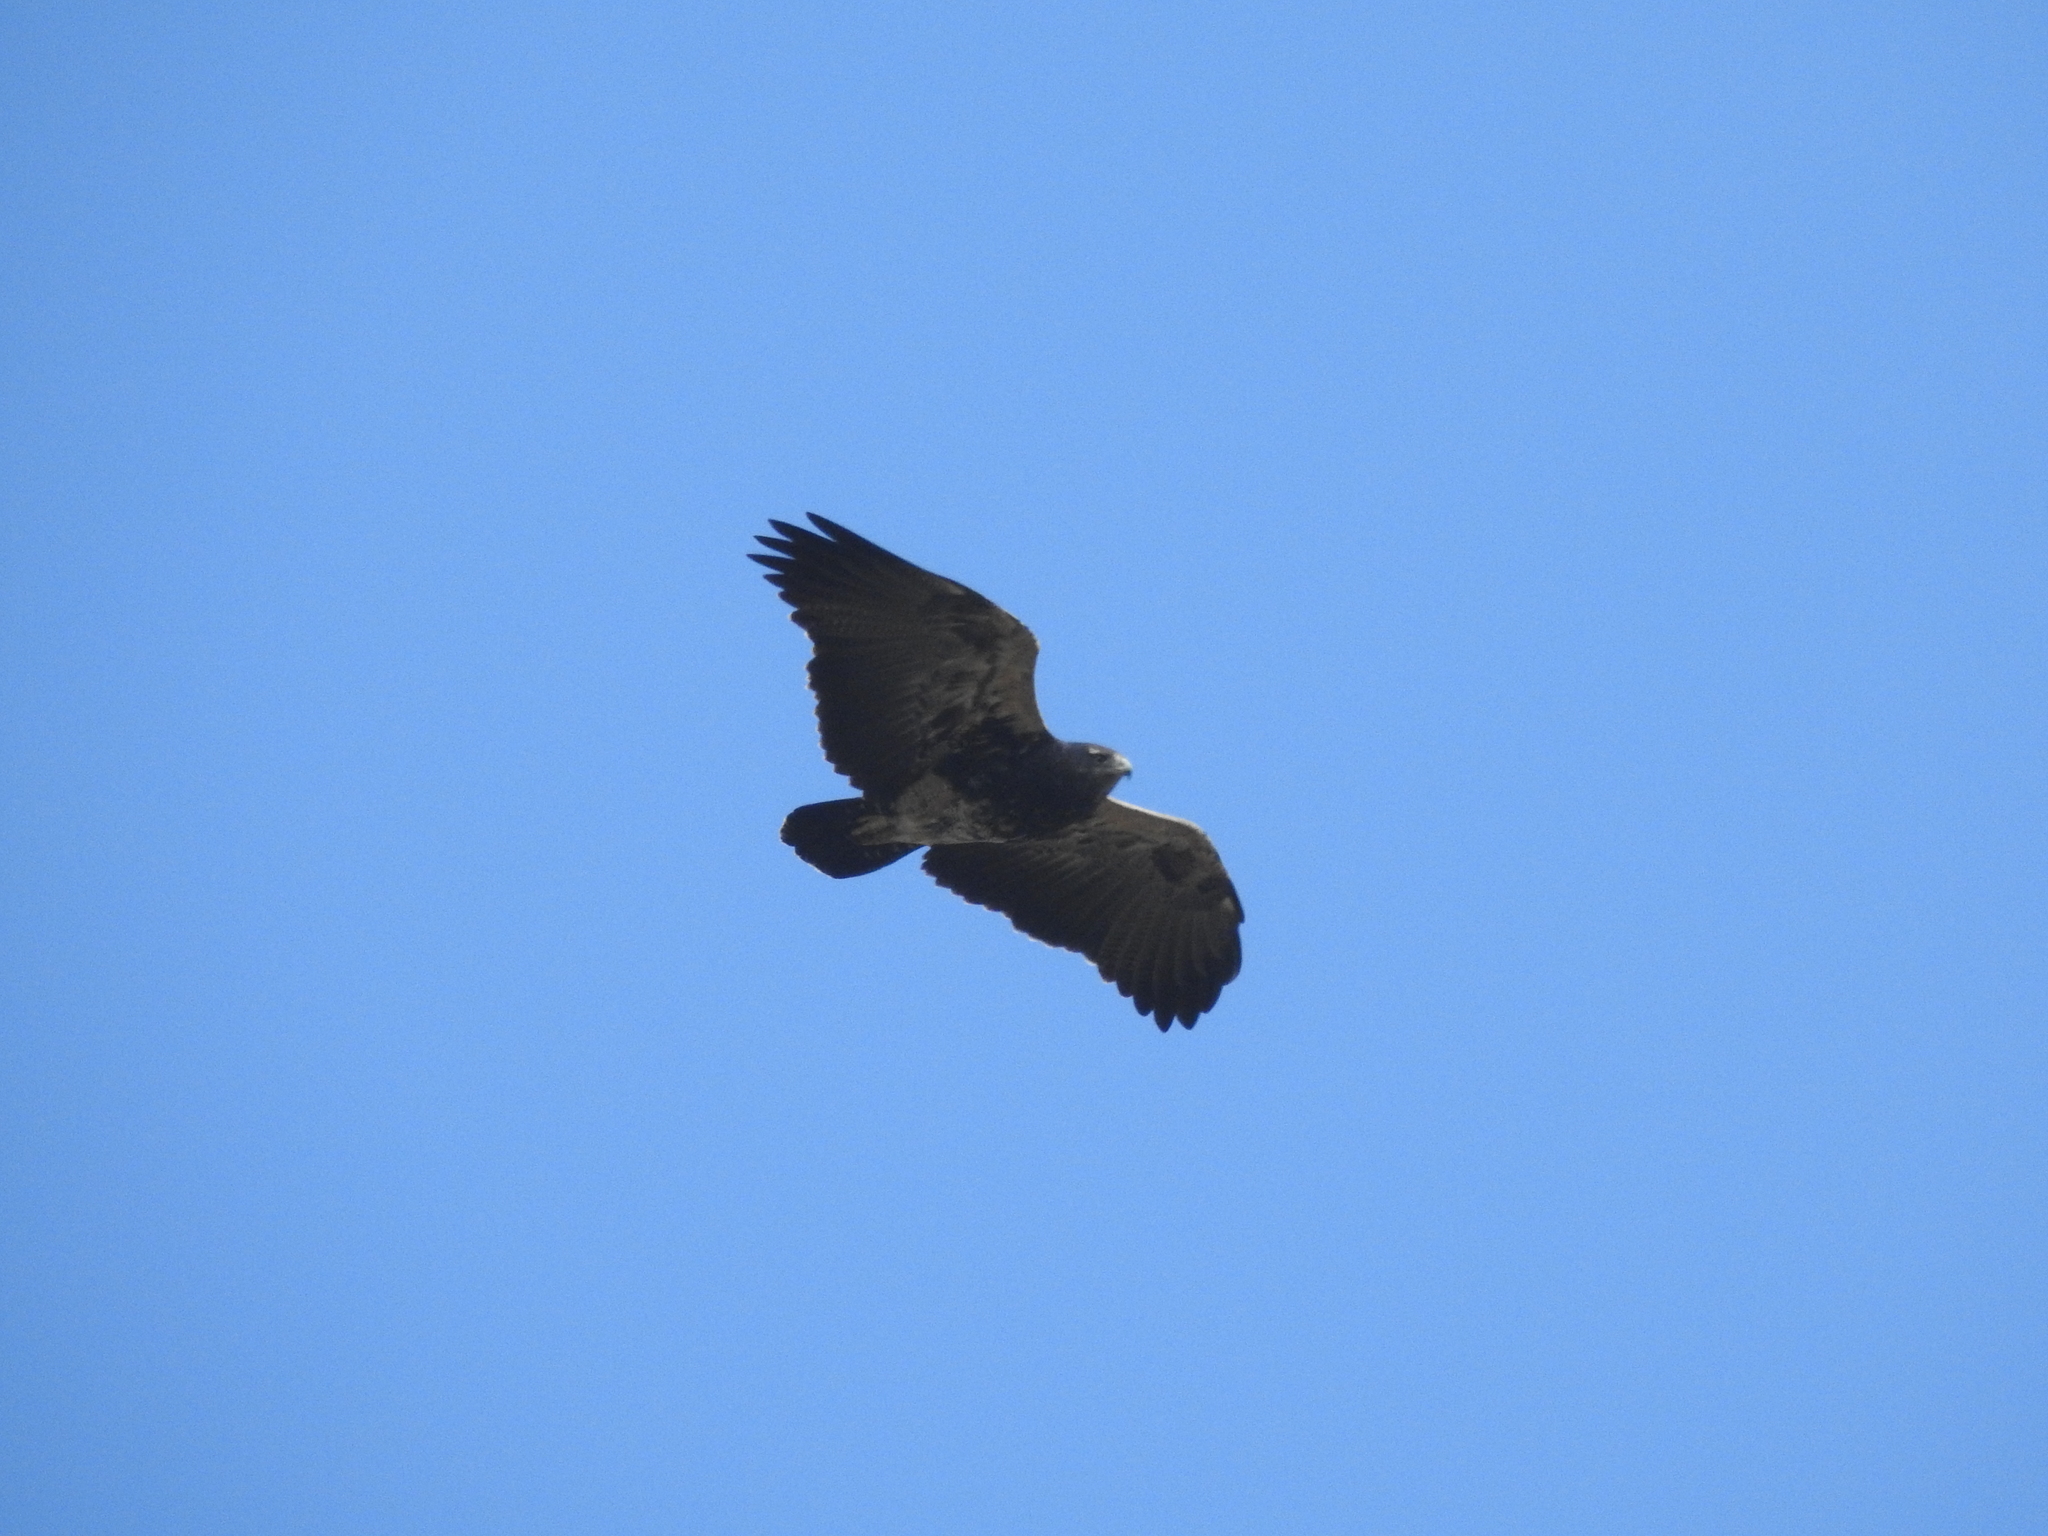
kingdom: Animalia
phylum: Chordata
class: Aves
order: Accipitriformes
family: Accipitridae
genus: Geranoaetus
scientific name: Geranoaetus melanoleucus
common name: Black-chested buzzard-eagle
